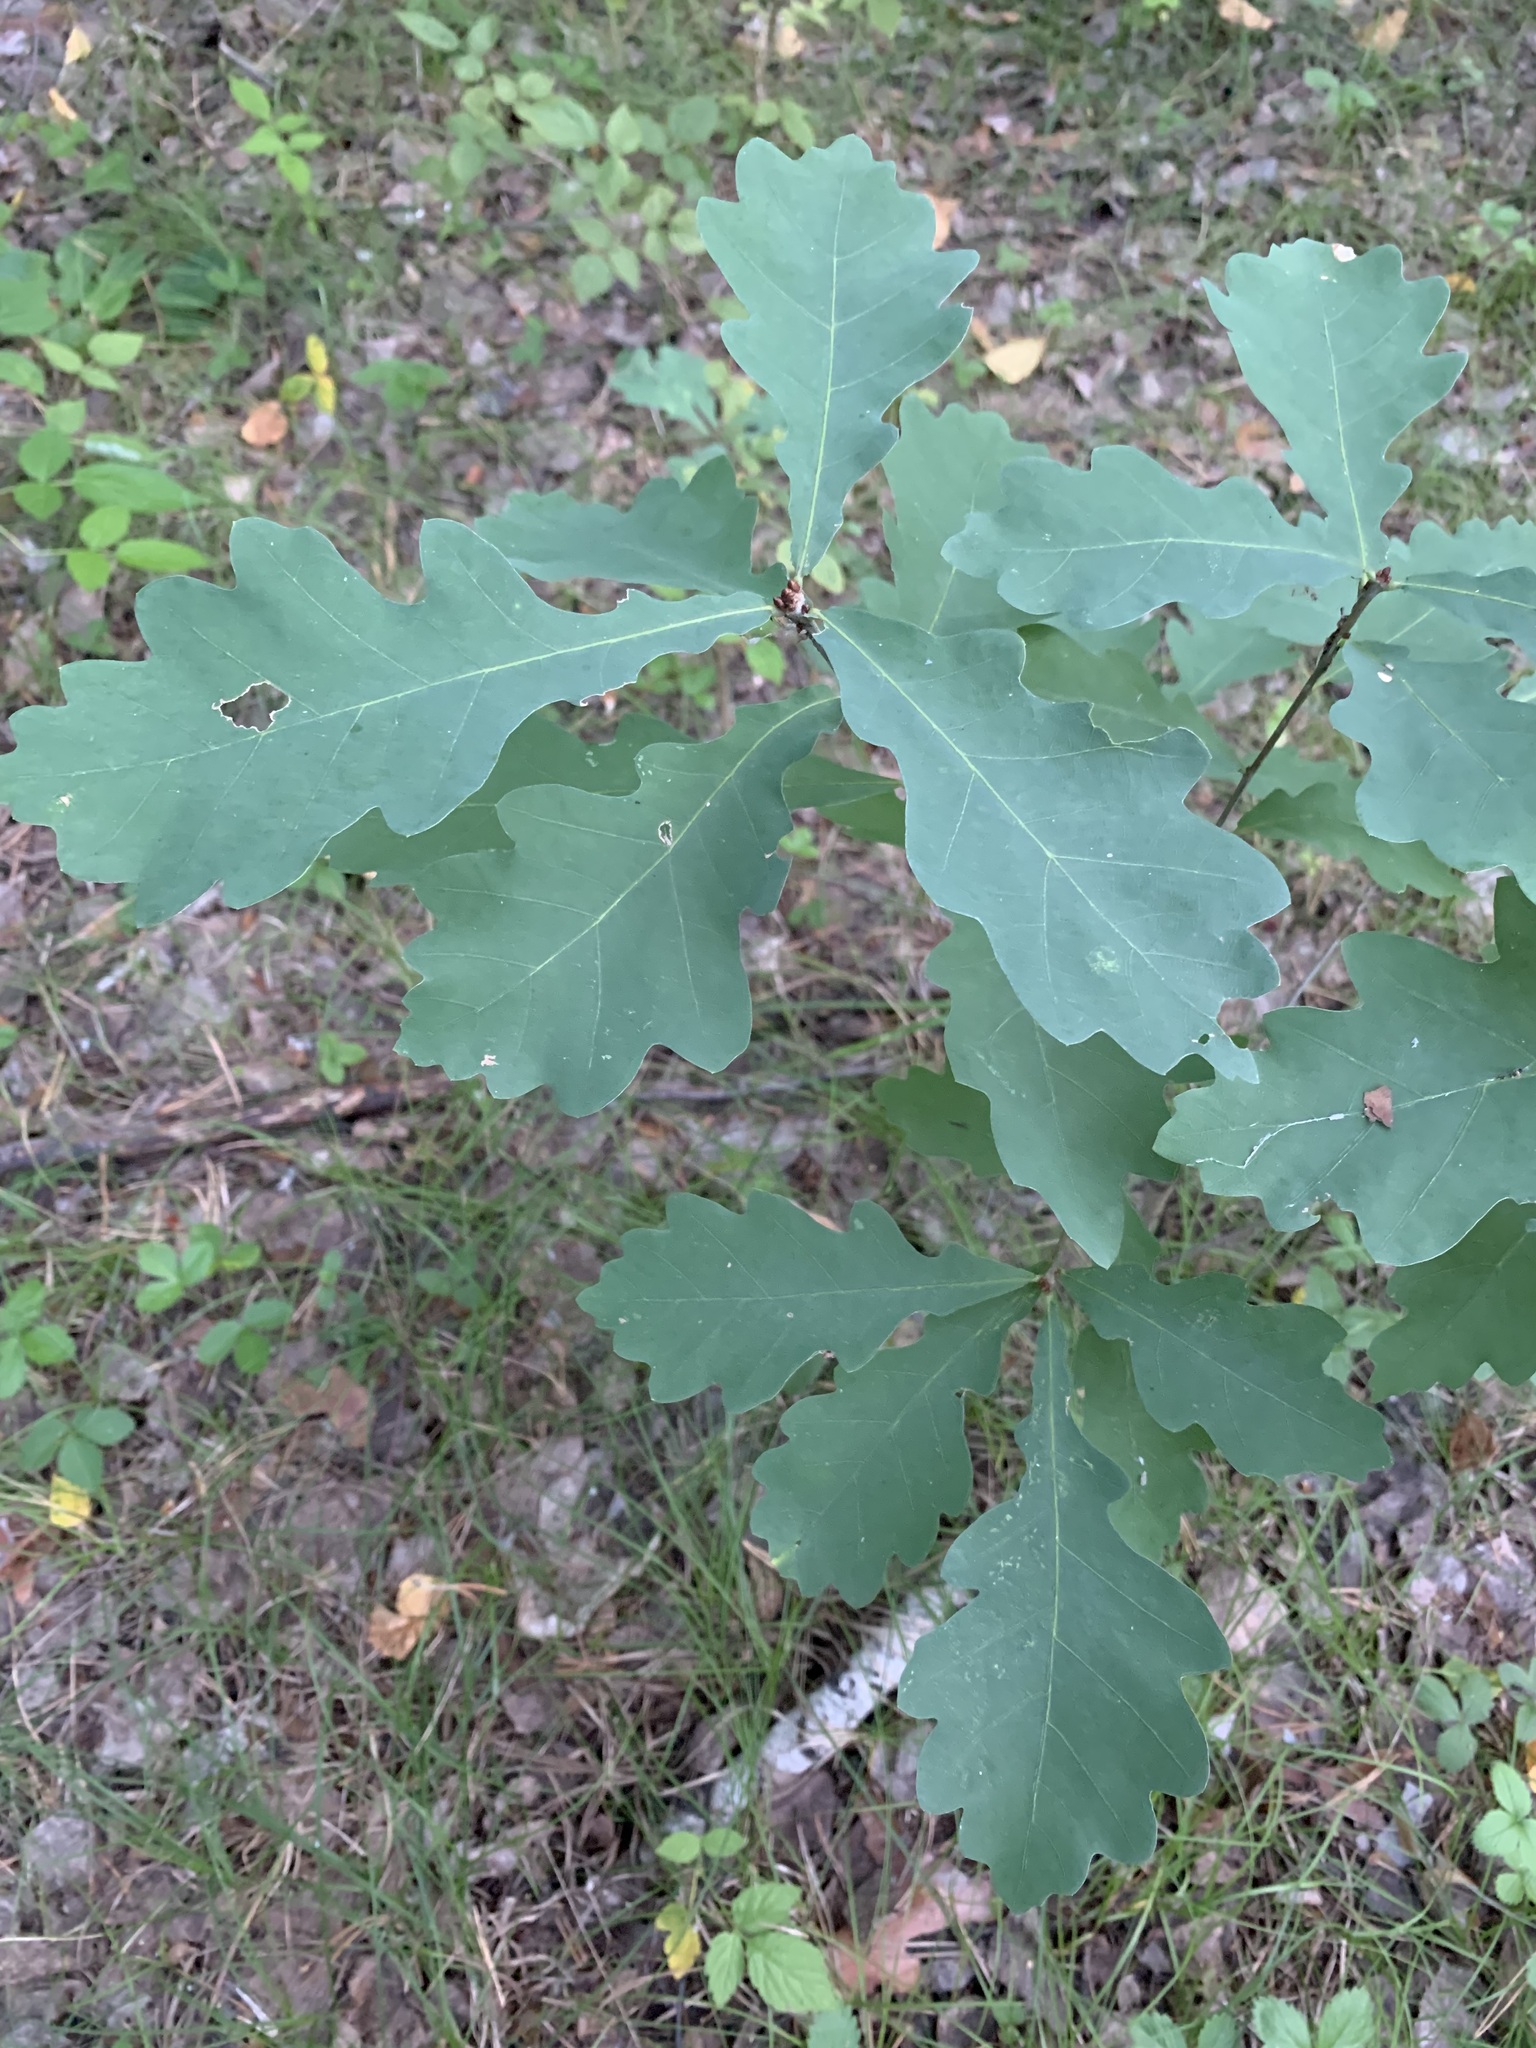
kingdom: Plantae
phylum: Tracheophyta
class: Magnoliopsida
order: Fagales
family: Fagaceae
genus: Quercus
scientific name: Quercus robur
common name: Pedunculate oak
